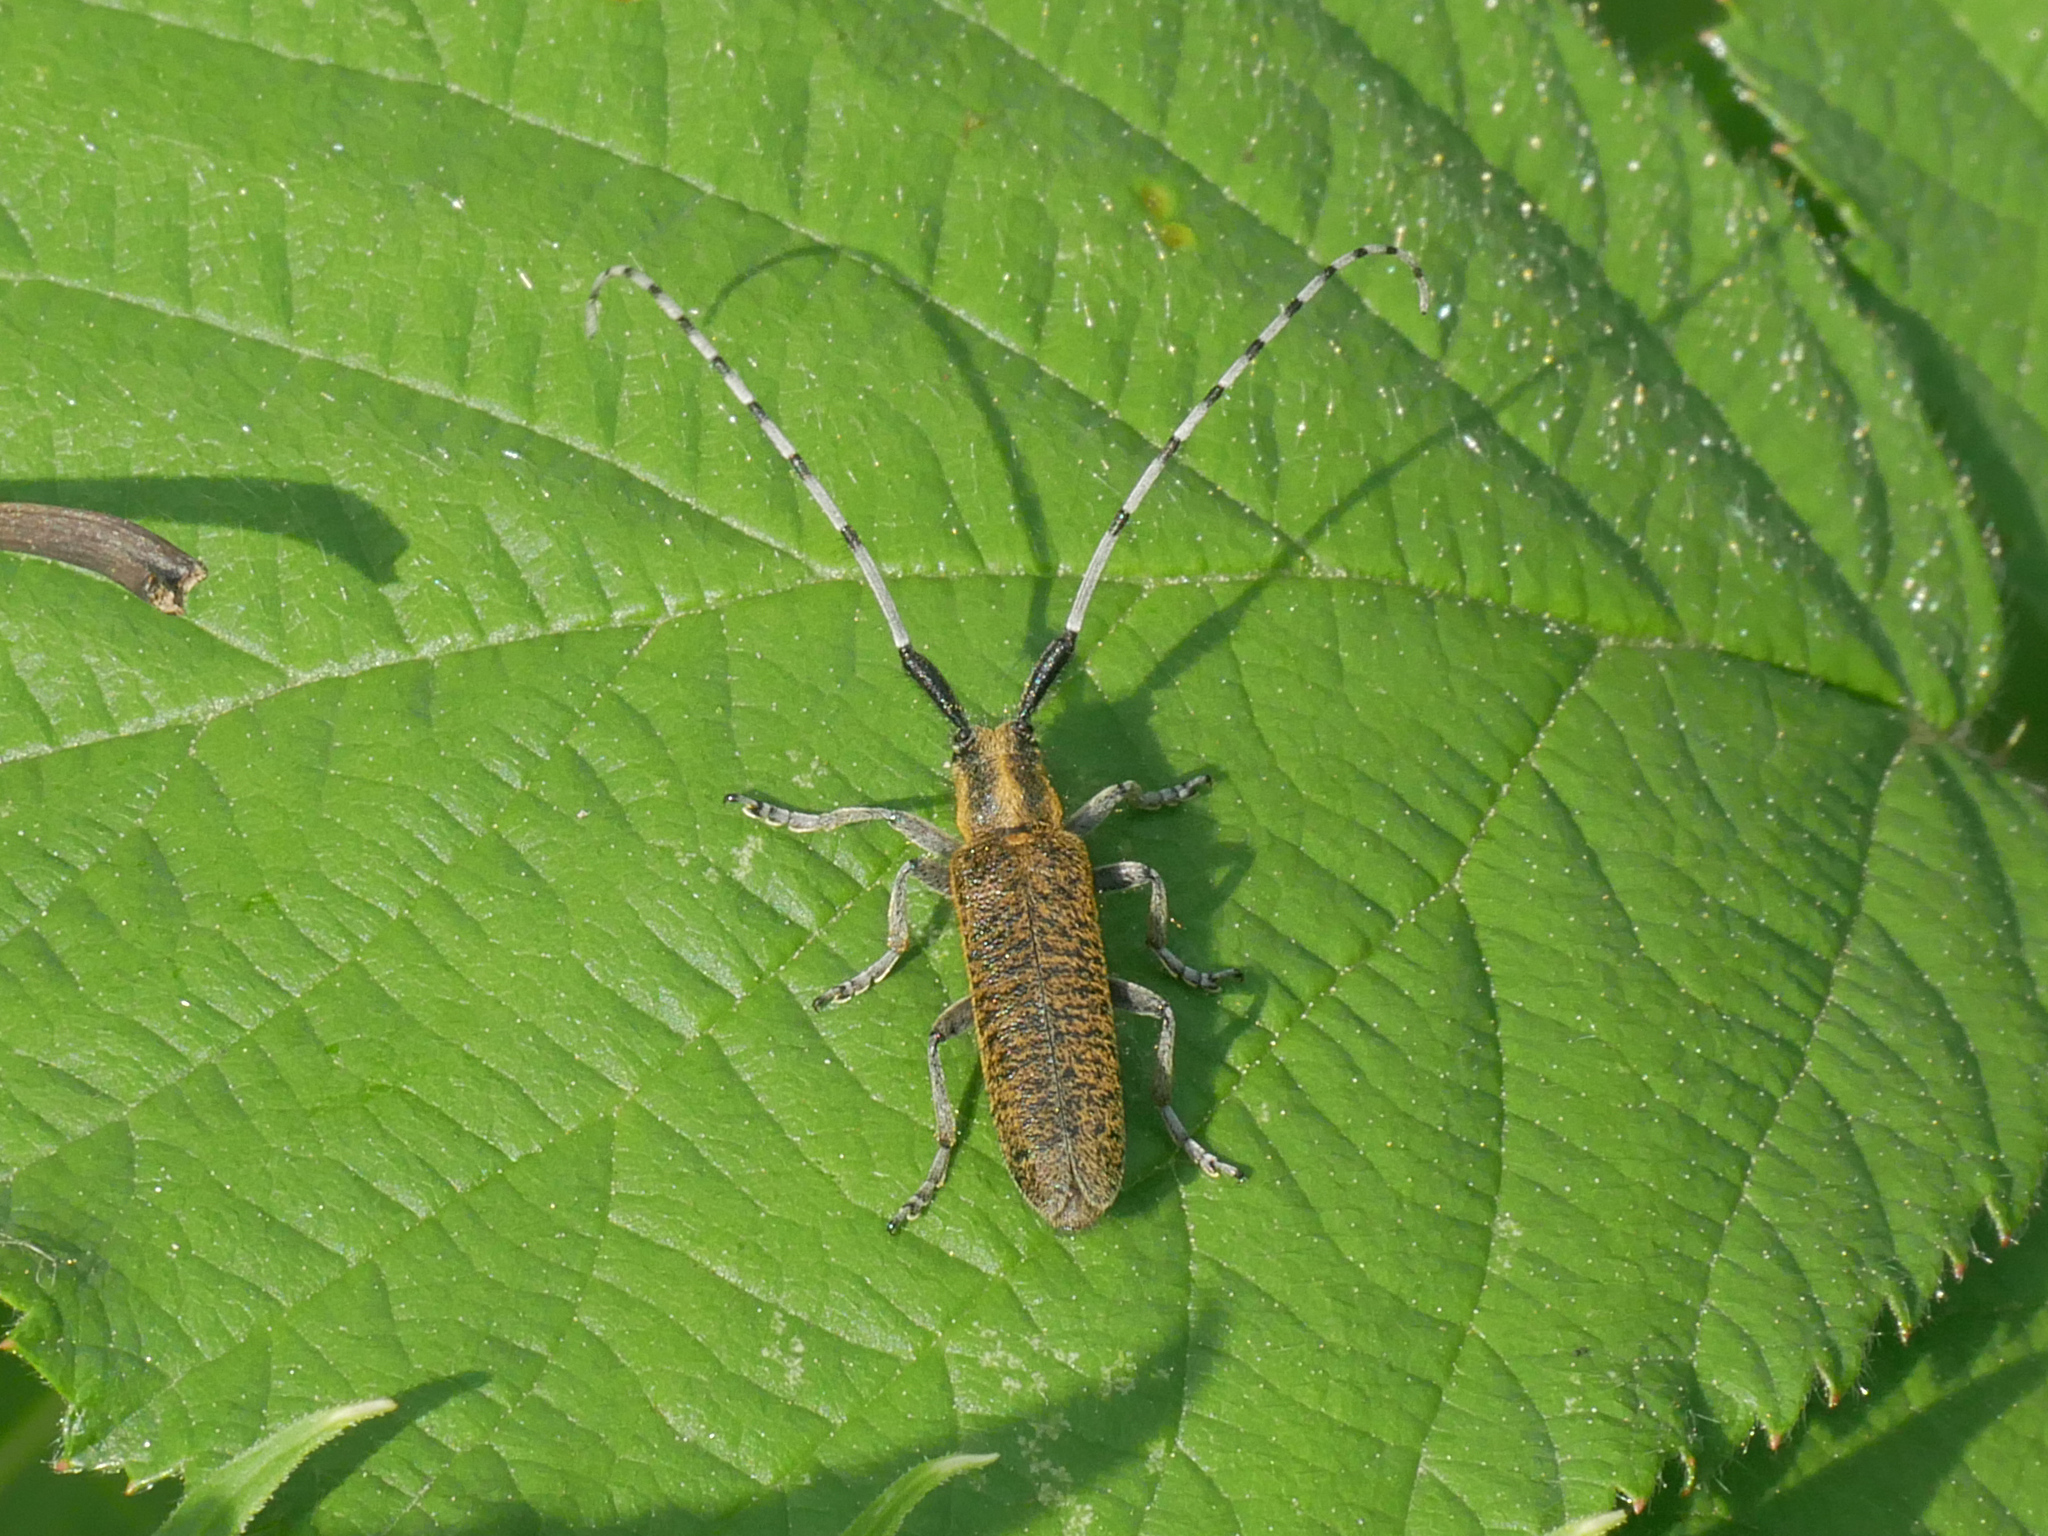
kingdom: Animalia
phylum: Arthropoda
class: Insecta
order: Coleoptera
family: Cerambycidae
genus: Agapanthia
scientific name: Agapanthia villosoviridescens
